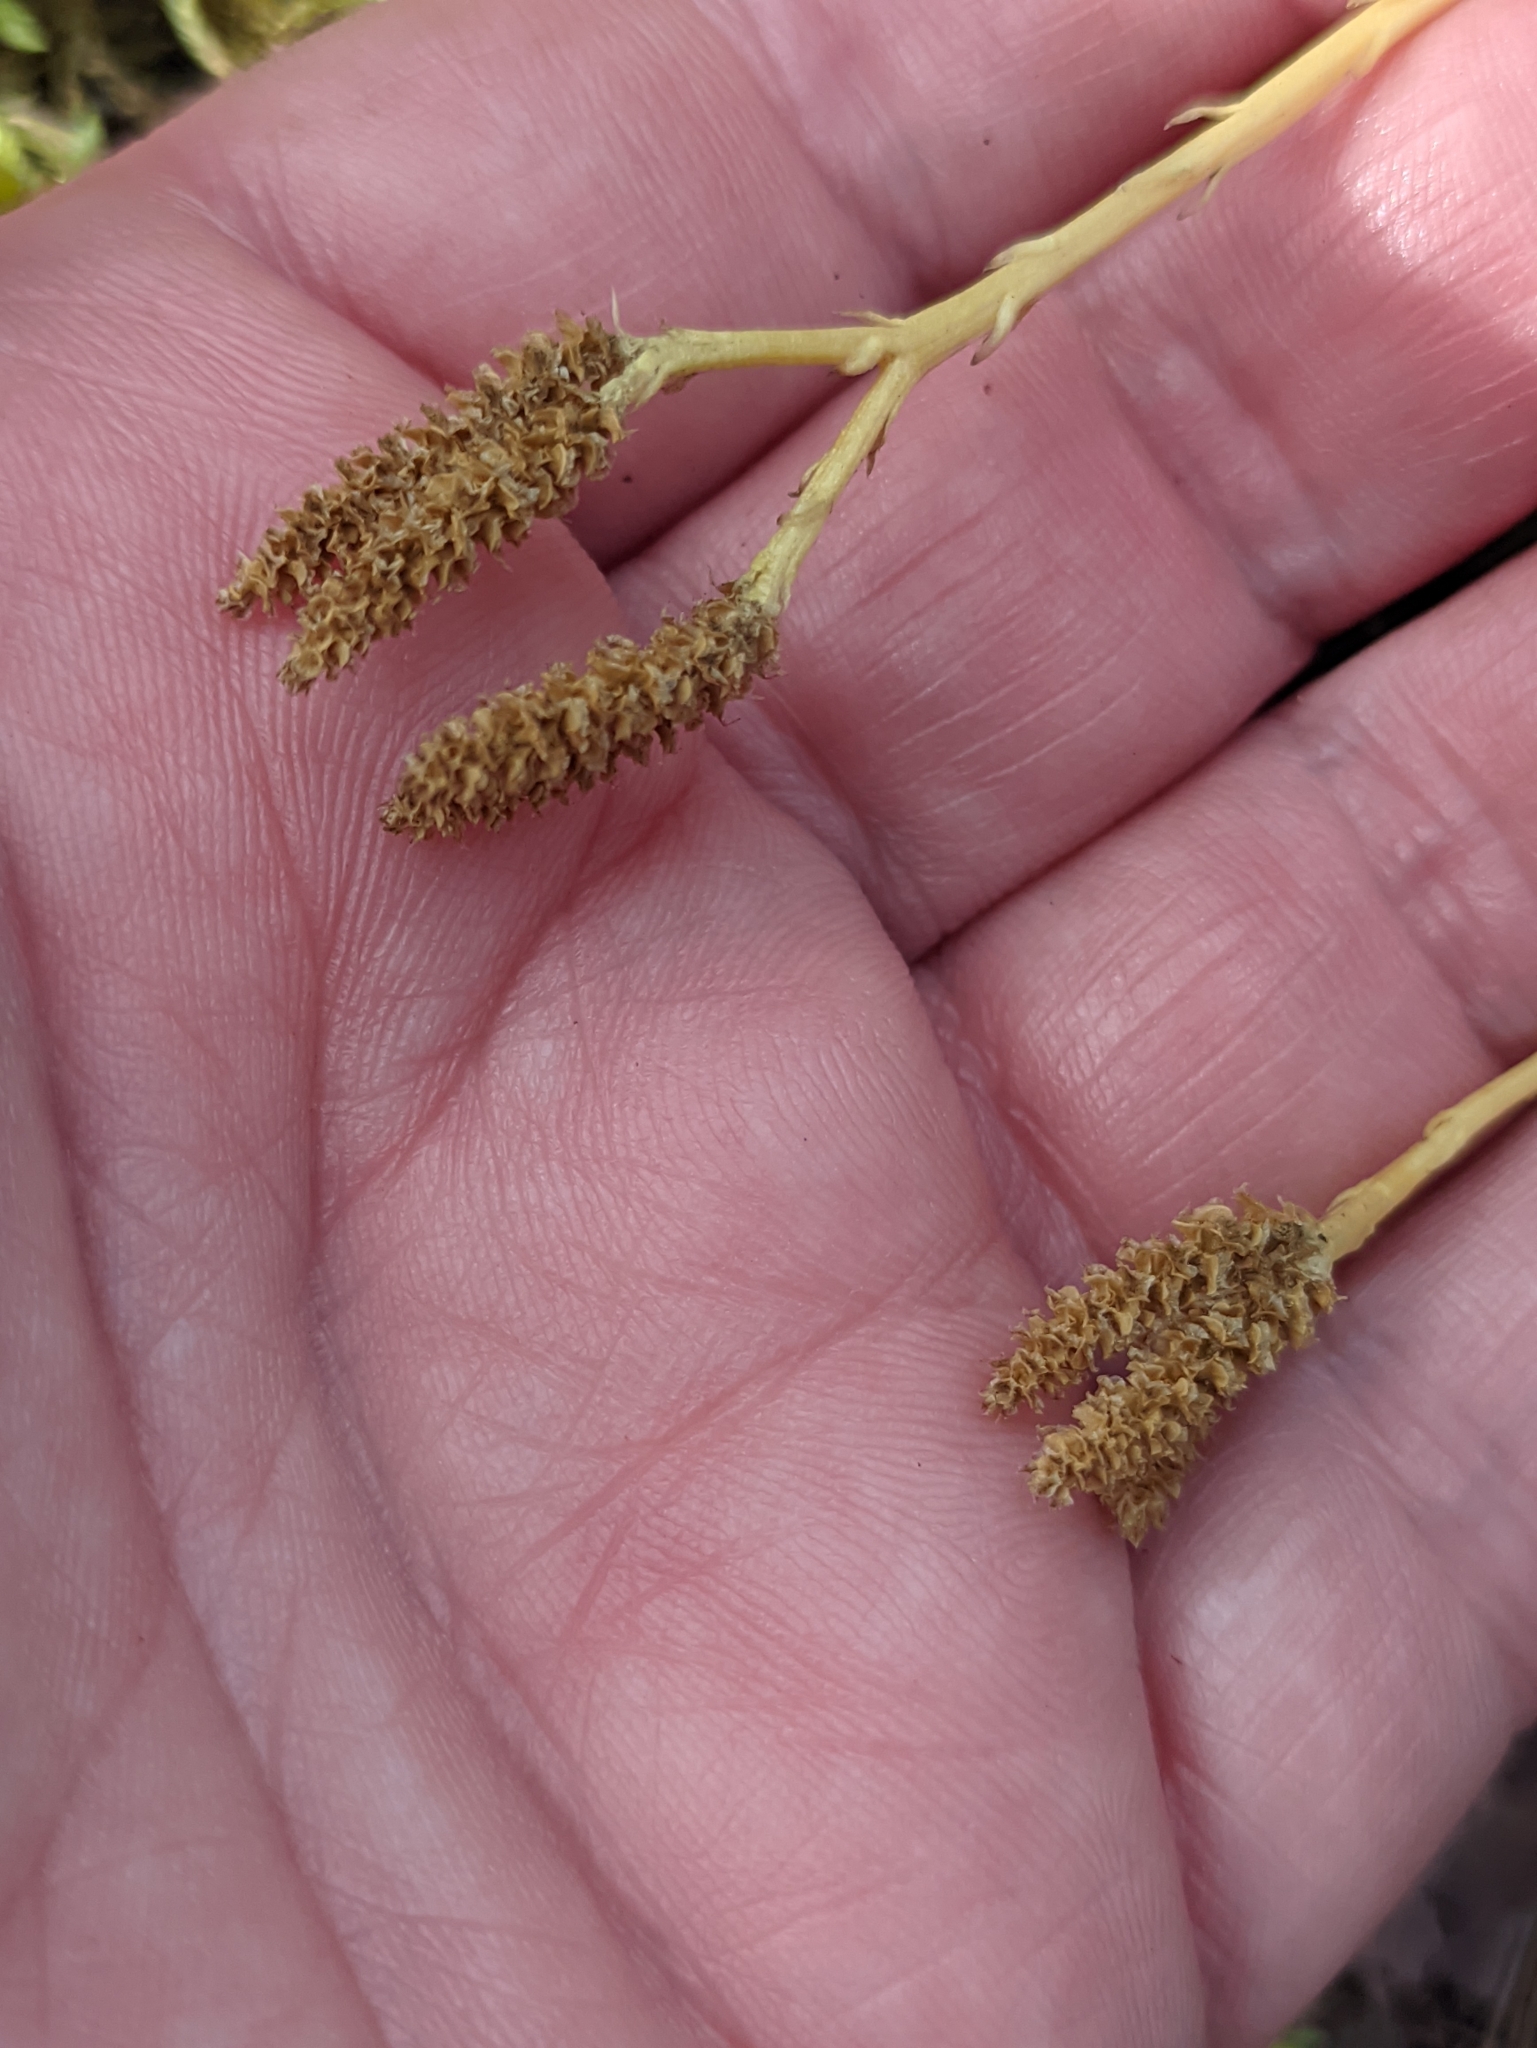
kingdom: Plantae
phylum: Tracheophyta
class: Lycopodiopsida
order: Lycopodiales
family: Lycopodiaceae
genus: Diphasiastrum
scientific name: Diphasiastrum complanatum
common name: Northern running-pine
